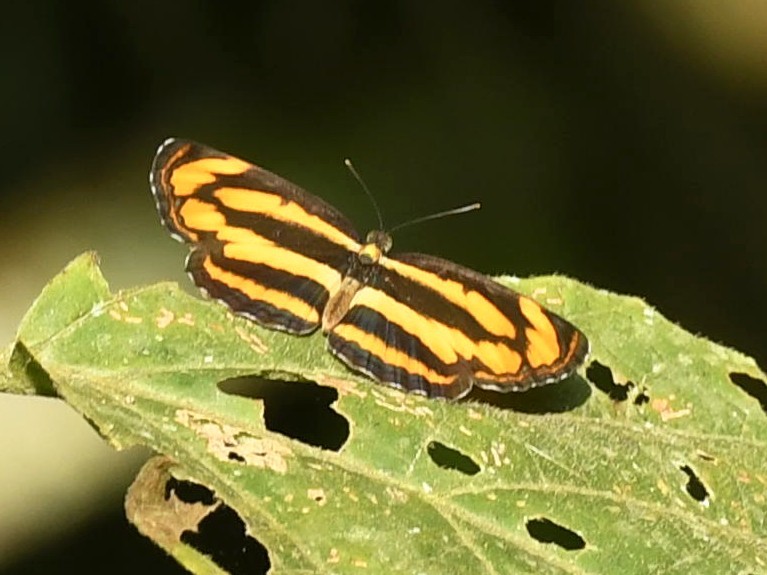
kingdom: Animalia
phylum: Arthropoda
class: Insecta
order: Lepidoptera
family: Nymphalidae
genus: Pantoporia
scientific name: Pantoporia hordonia
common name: Common lascar
